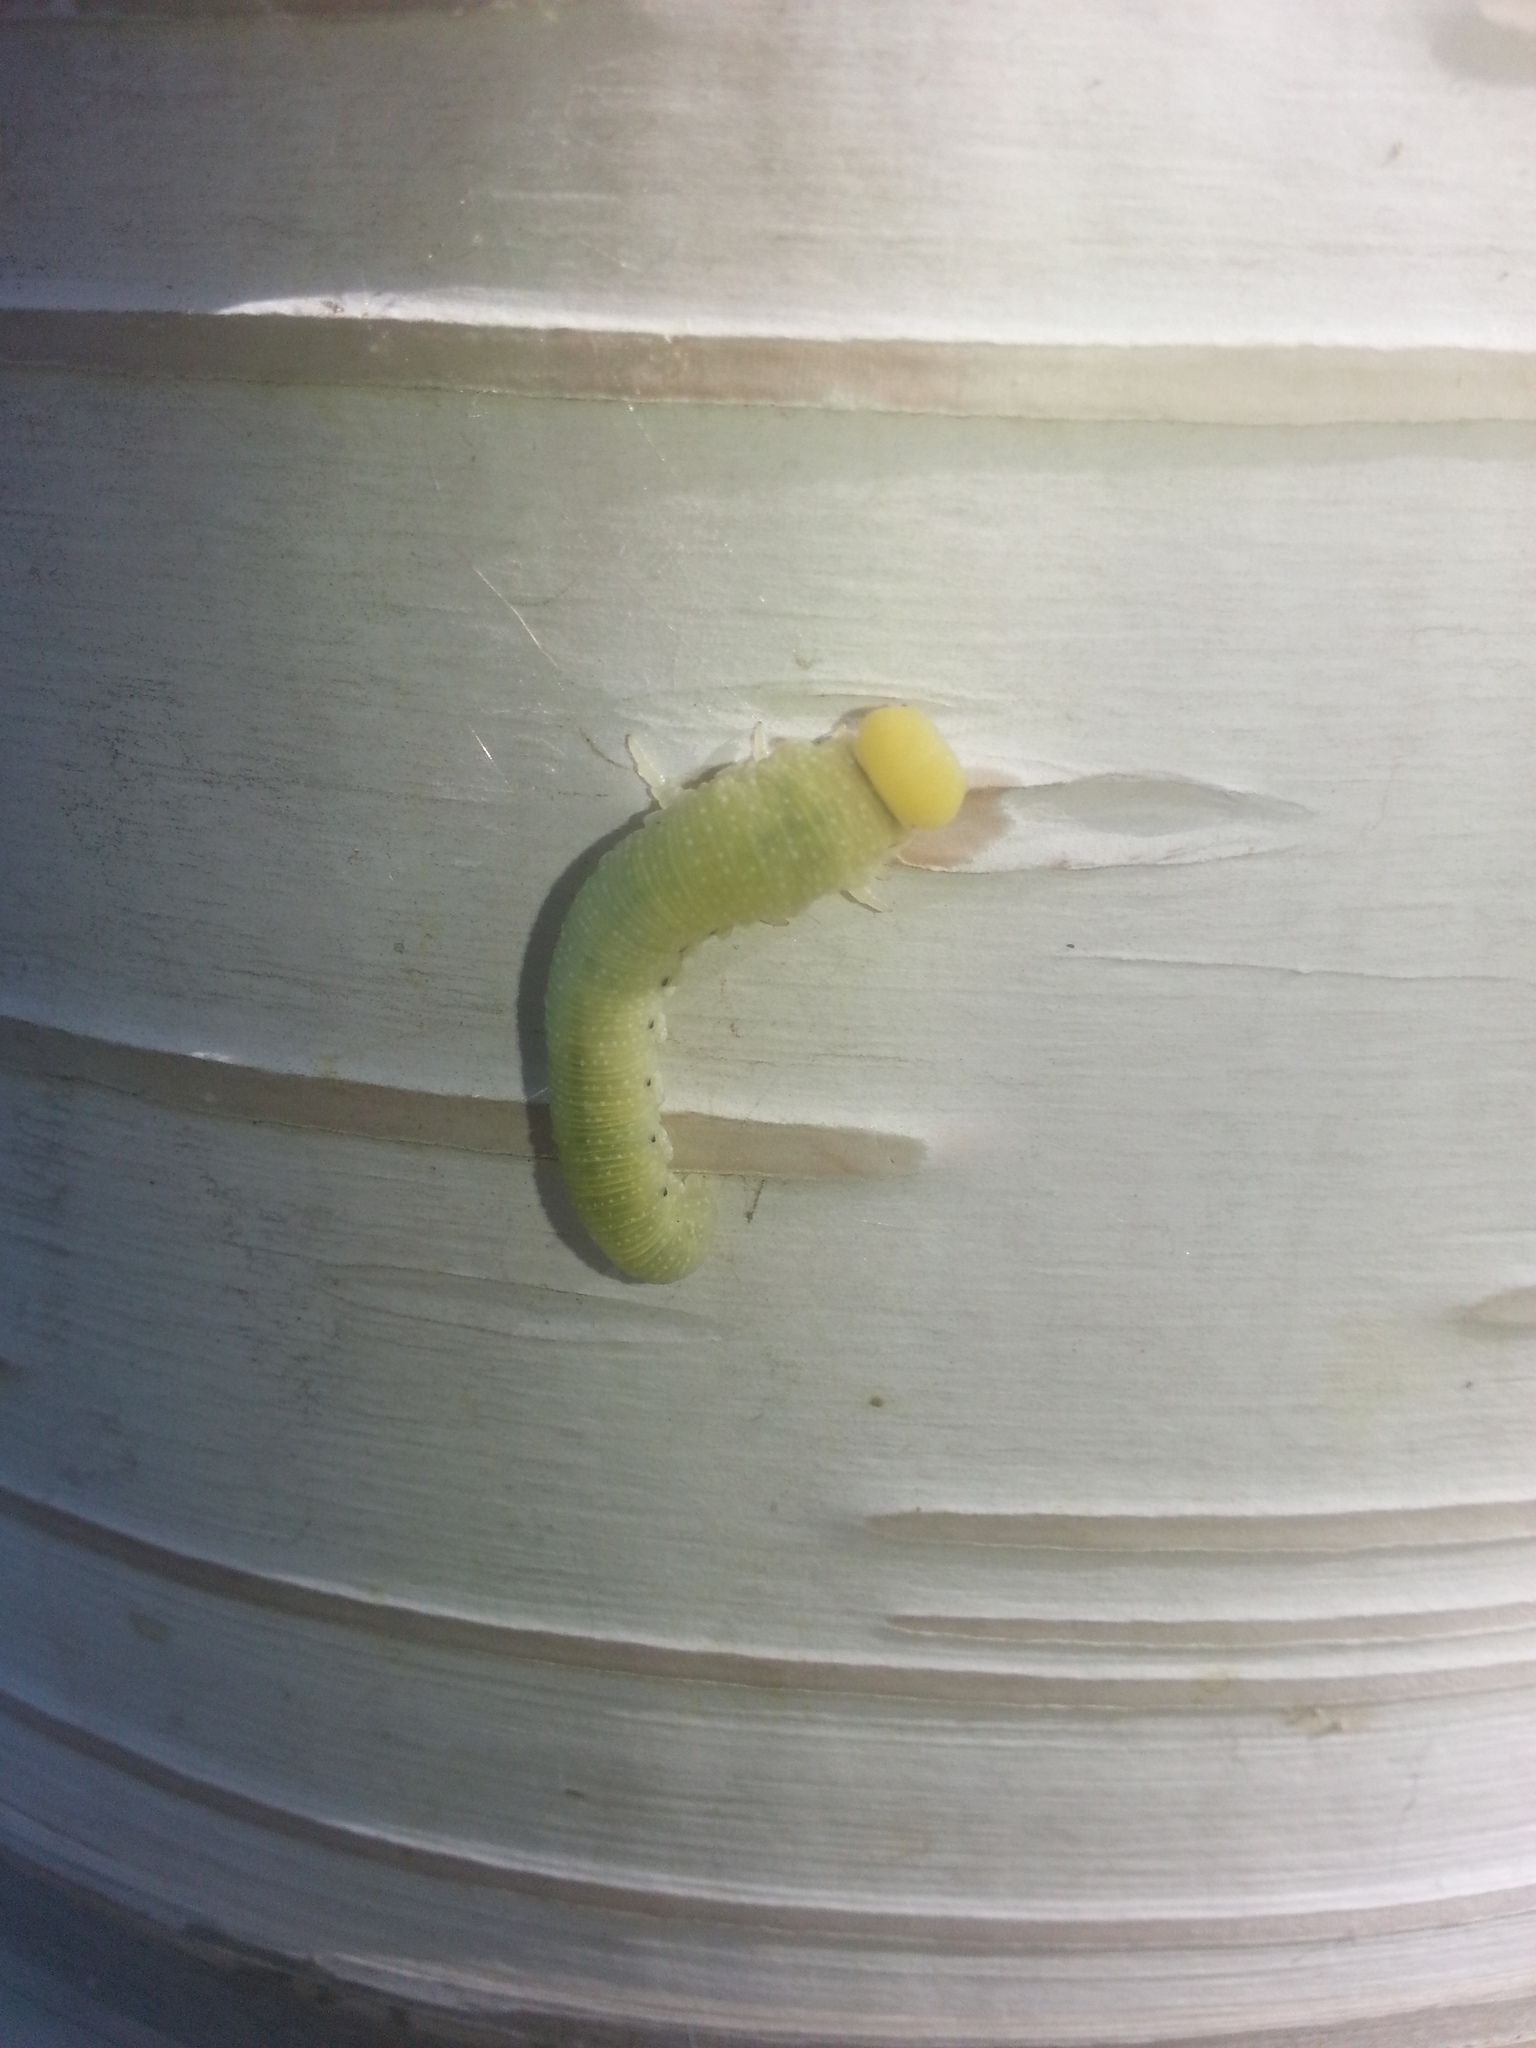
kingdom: Animalia
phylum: Arthropoda
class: Insecta
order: Hymenoptera
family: Cimbicidae
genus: Trichiosoma
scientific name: Trichiosoma triangulum
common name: Giant birch sawfly
